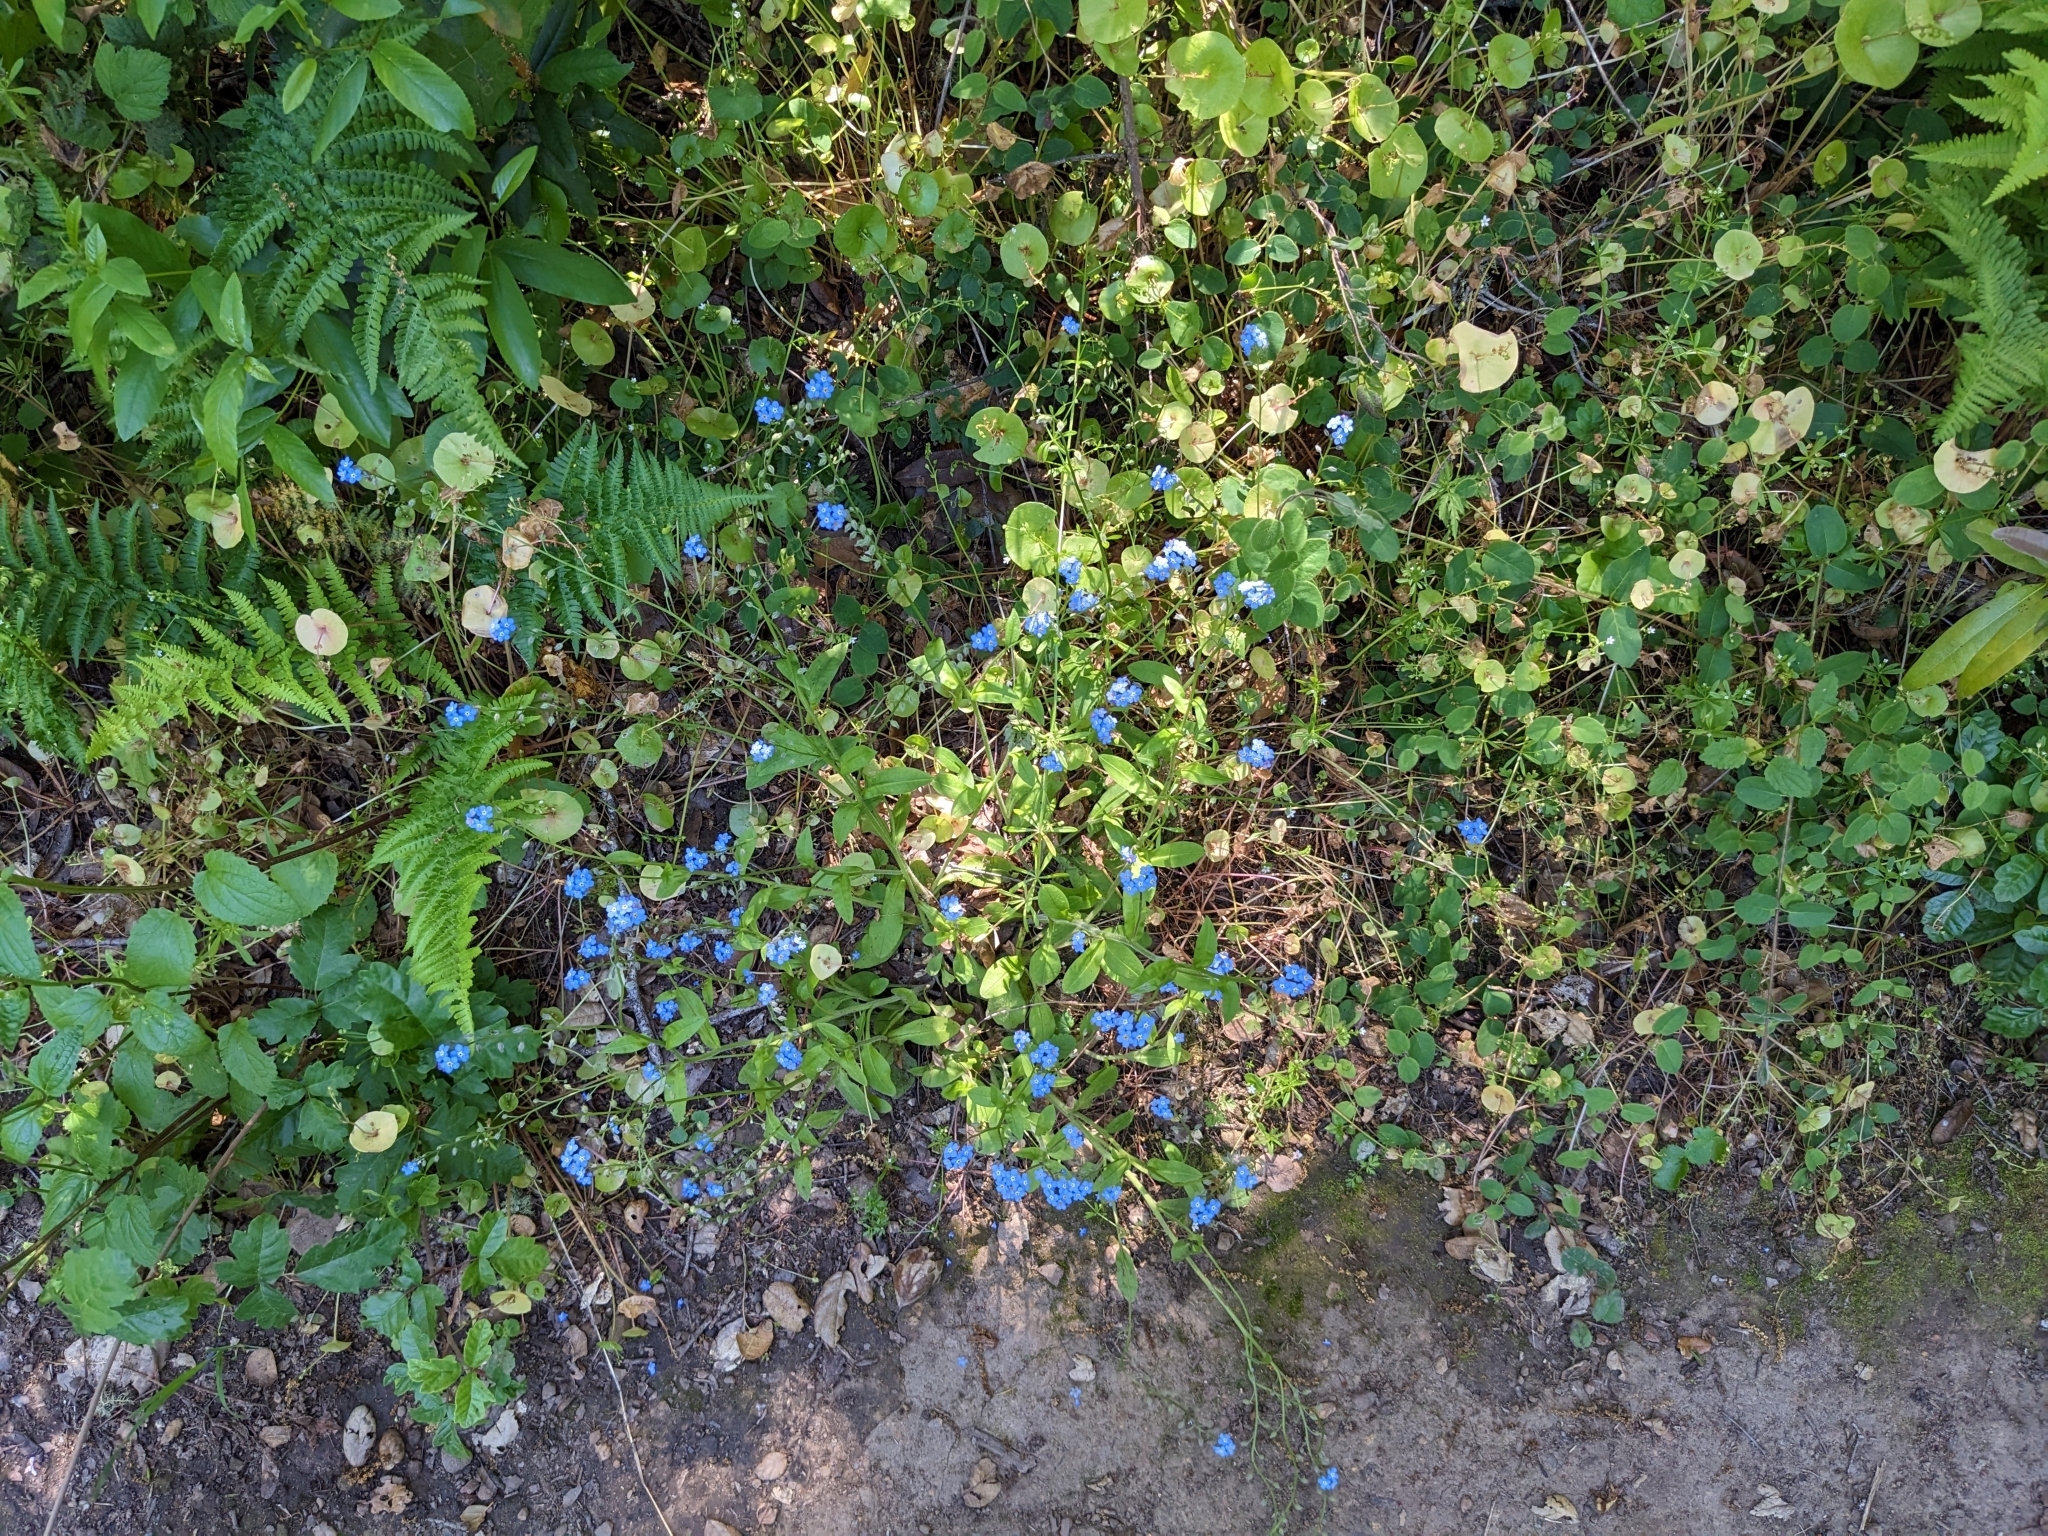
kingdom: Plantae
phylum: Tracheophyta
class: Magnoliopsida
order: Boraginales
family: Boraginaceae
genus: Myosotis
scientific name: Myosotis latifolia
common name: Broadleaf forget-me-not
